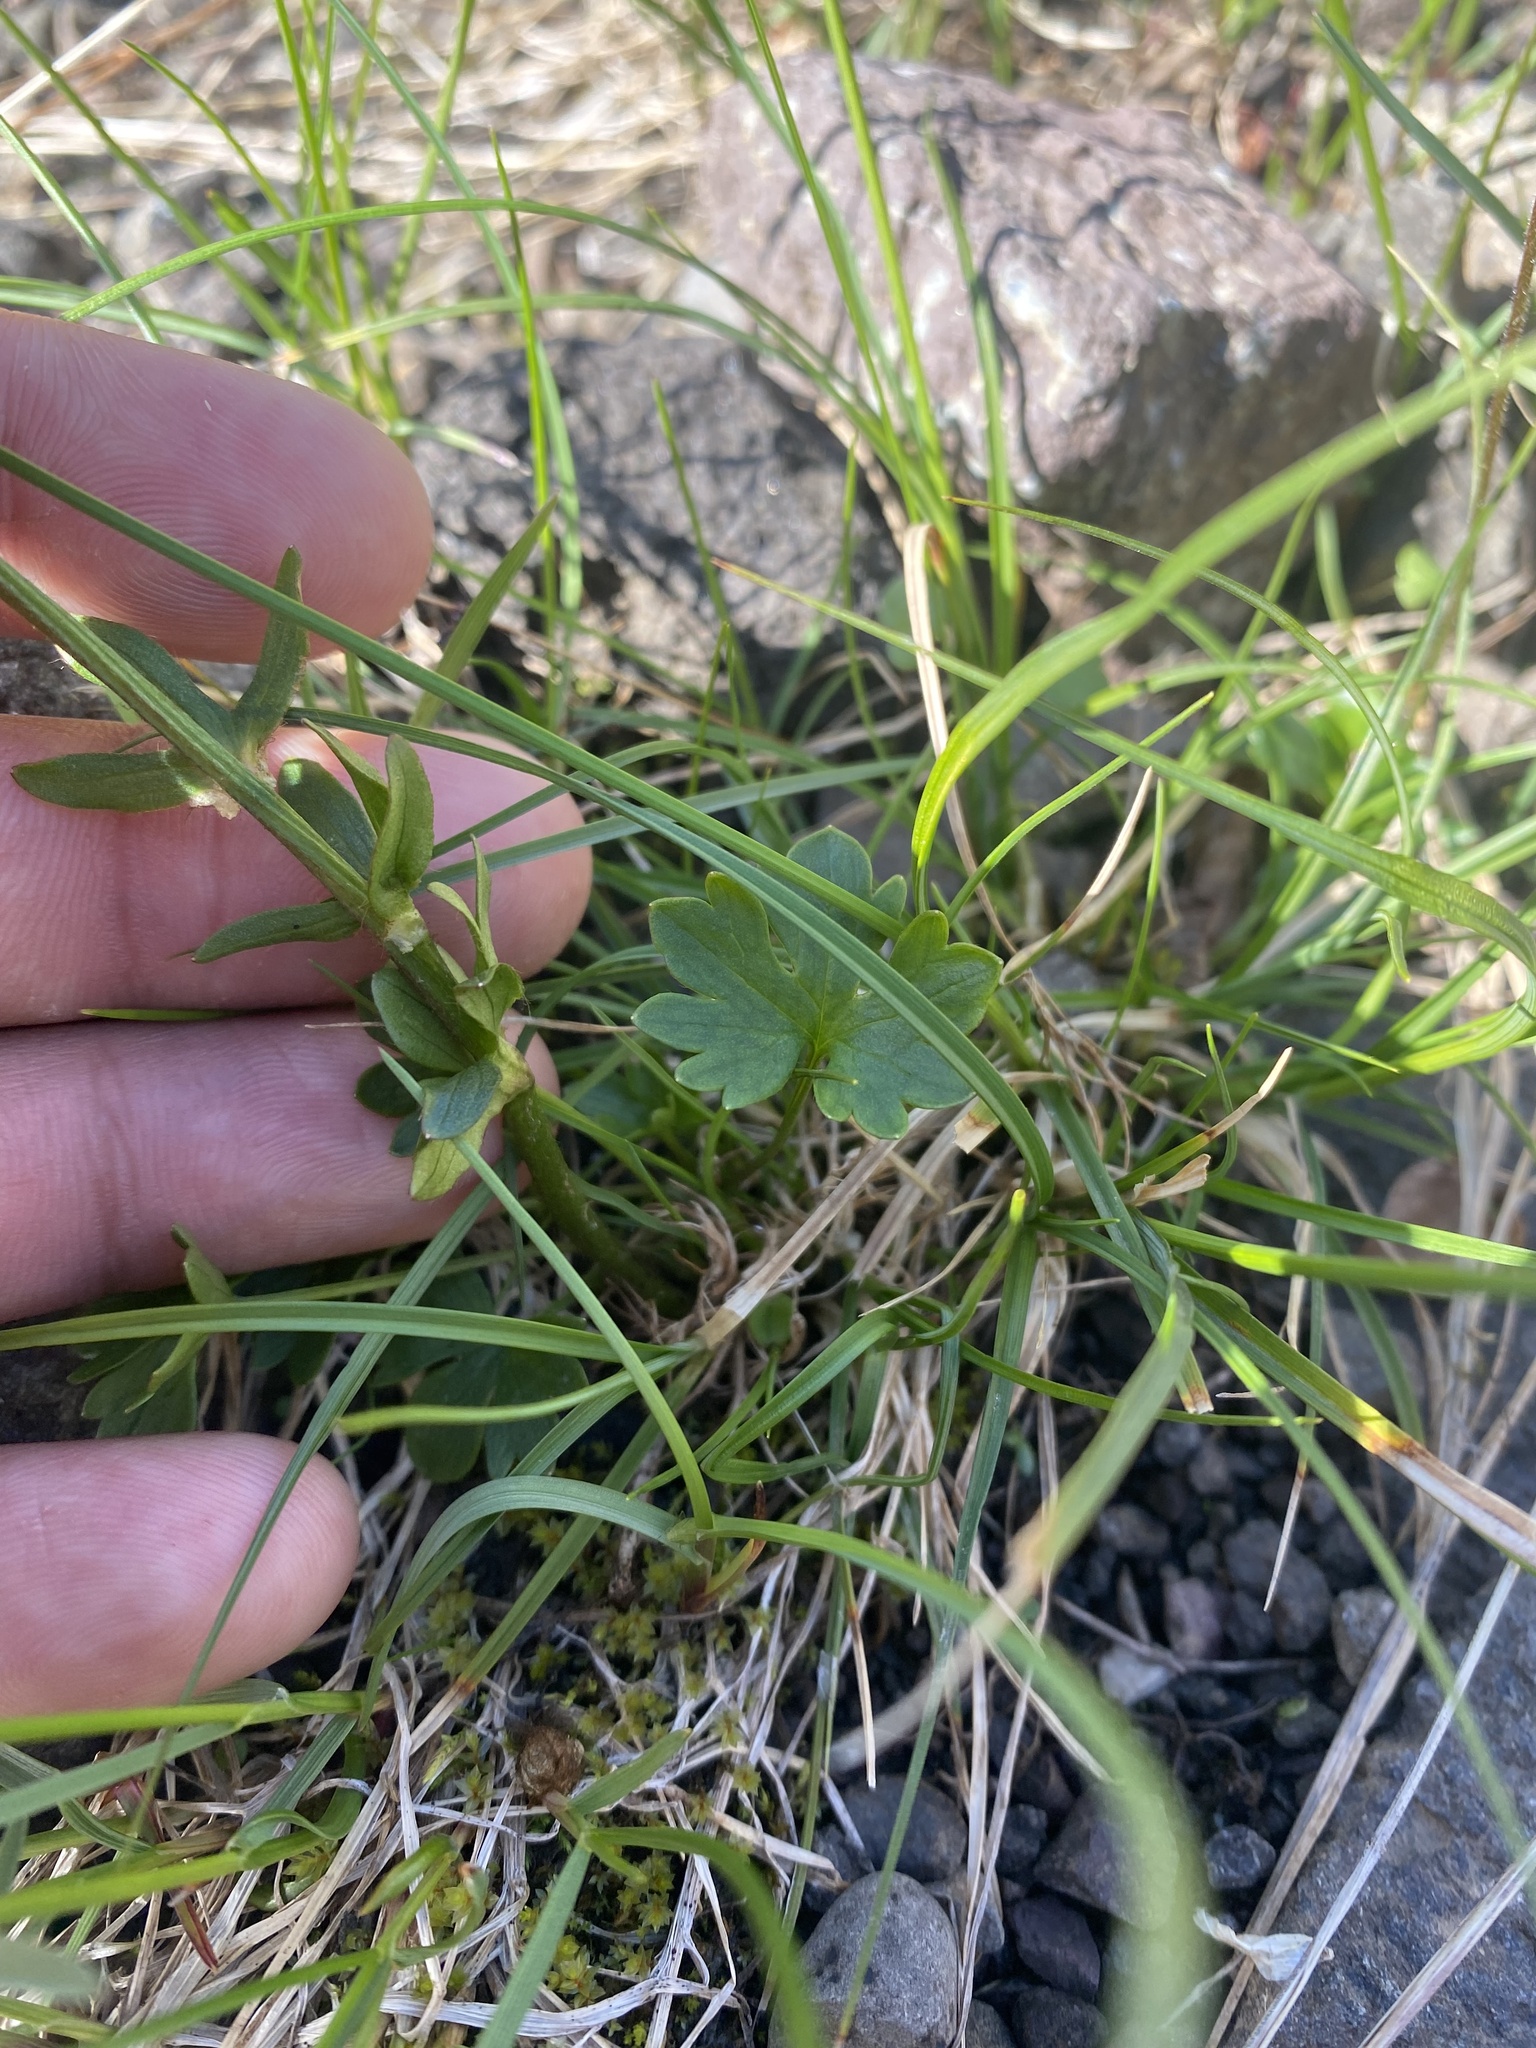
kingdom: Plantae
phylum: Tracheophyta
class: Magnoliopsida
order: Ranunculales
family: Ranunculaceae
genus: Ranunculus
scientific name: Ranunculus nivalis
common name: Snow buttercup
